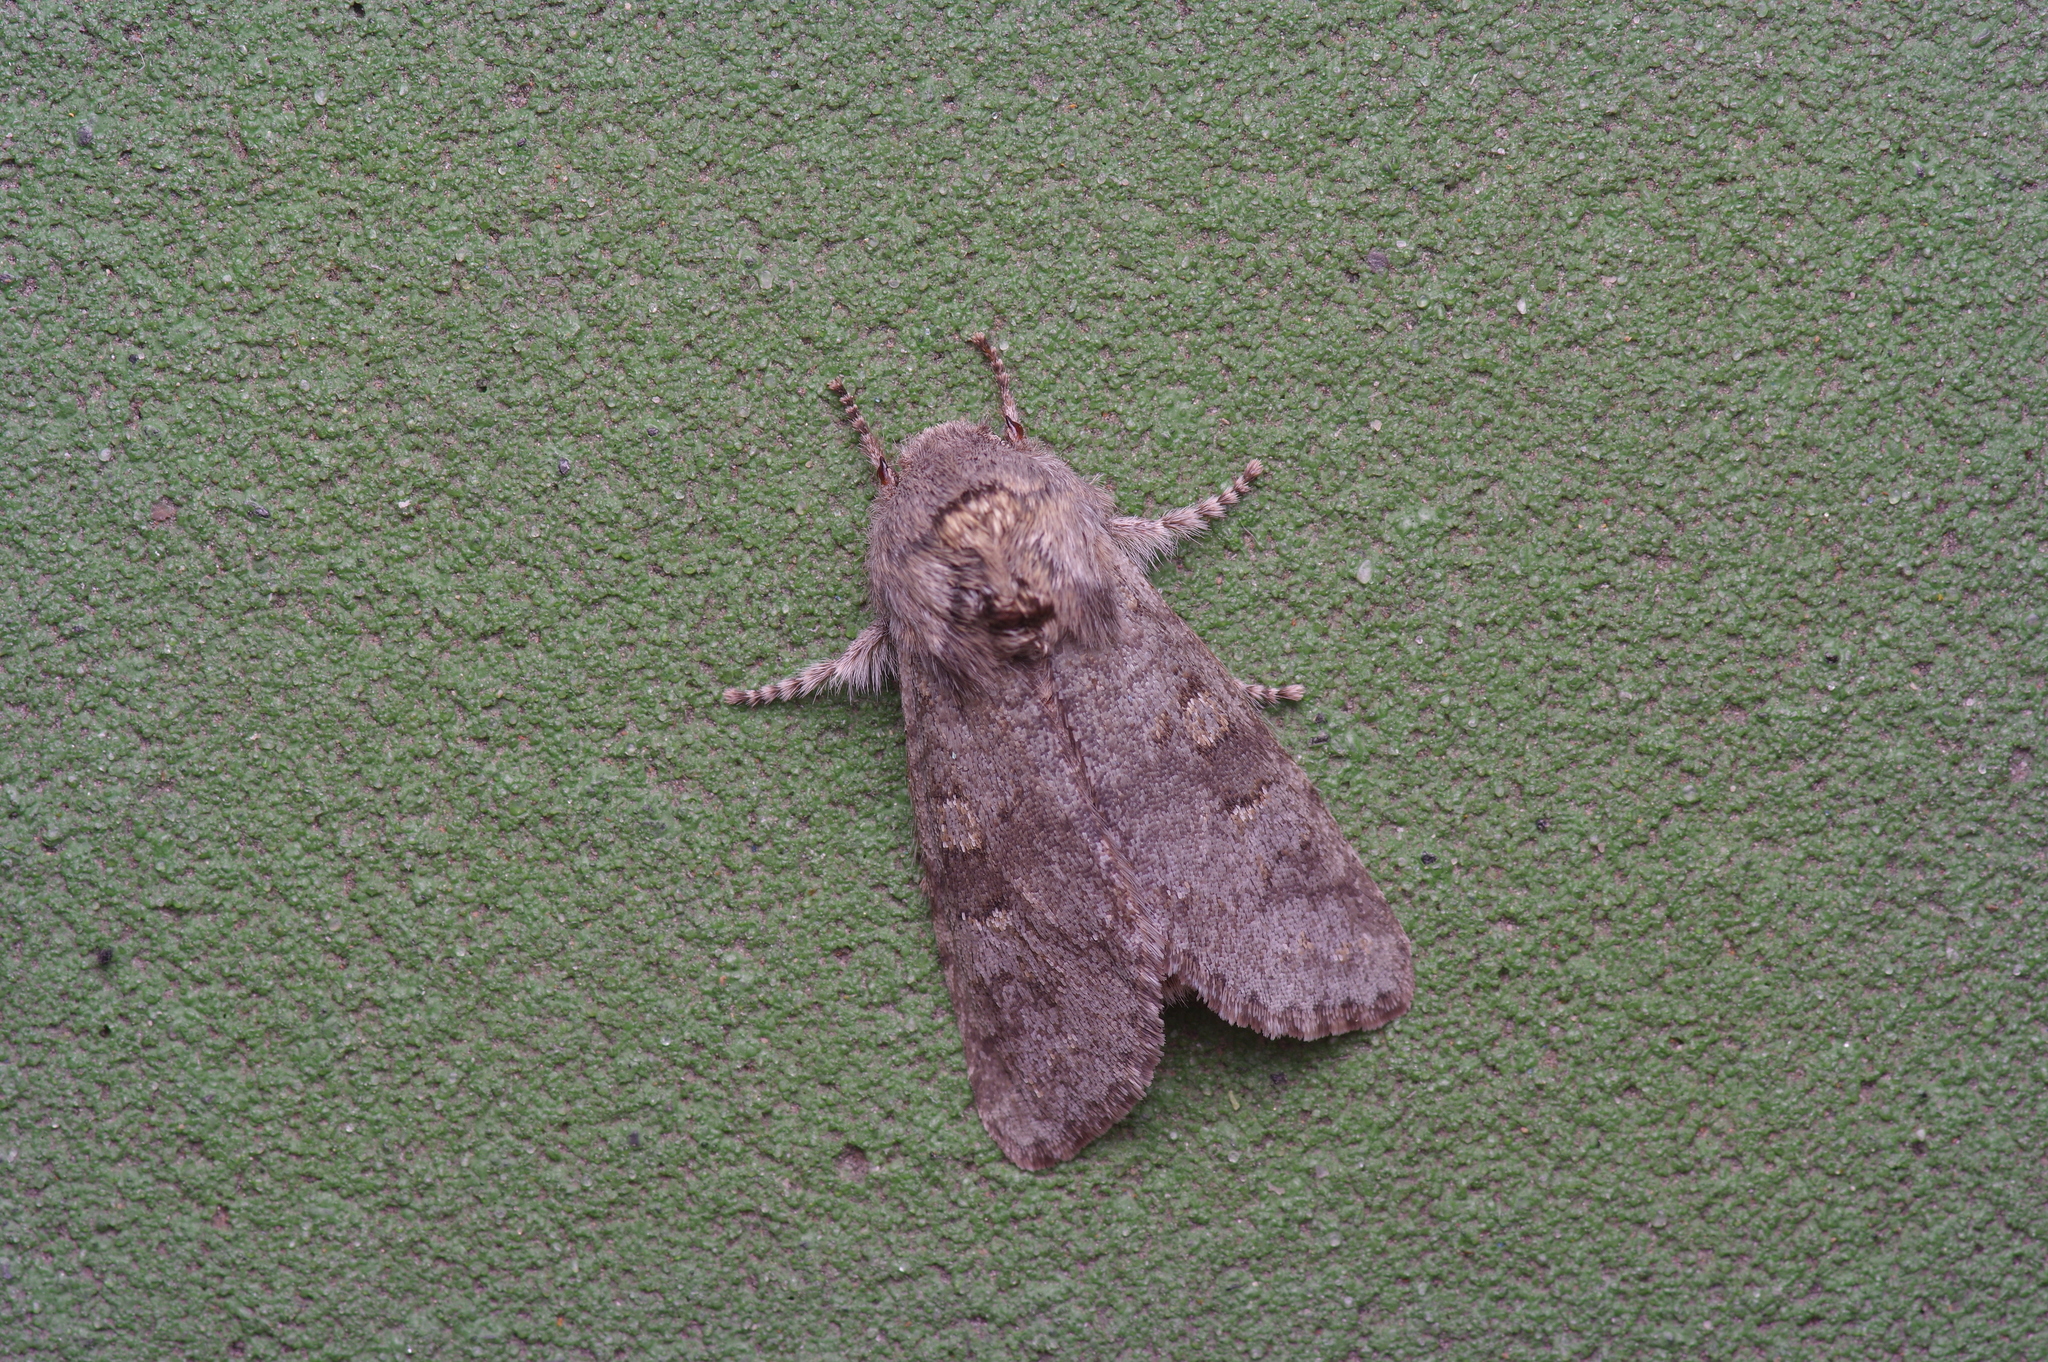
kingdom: Animalia
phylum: Arthropoda
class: Insecta
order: Lepidoptera
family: Noctuidae
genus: Psaphida
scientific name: Psaphida rolandi
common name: Roland's sallow
